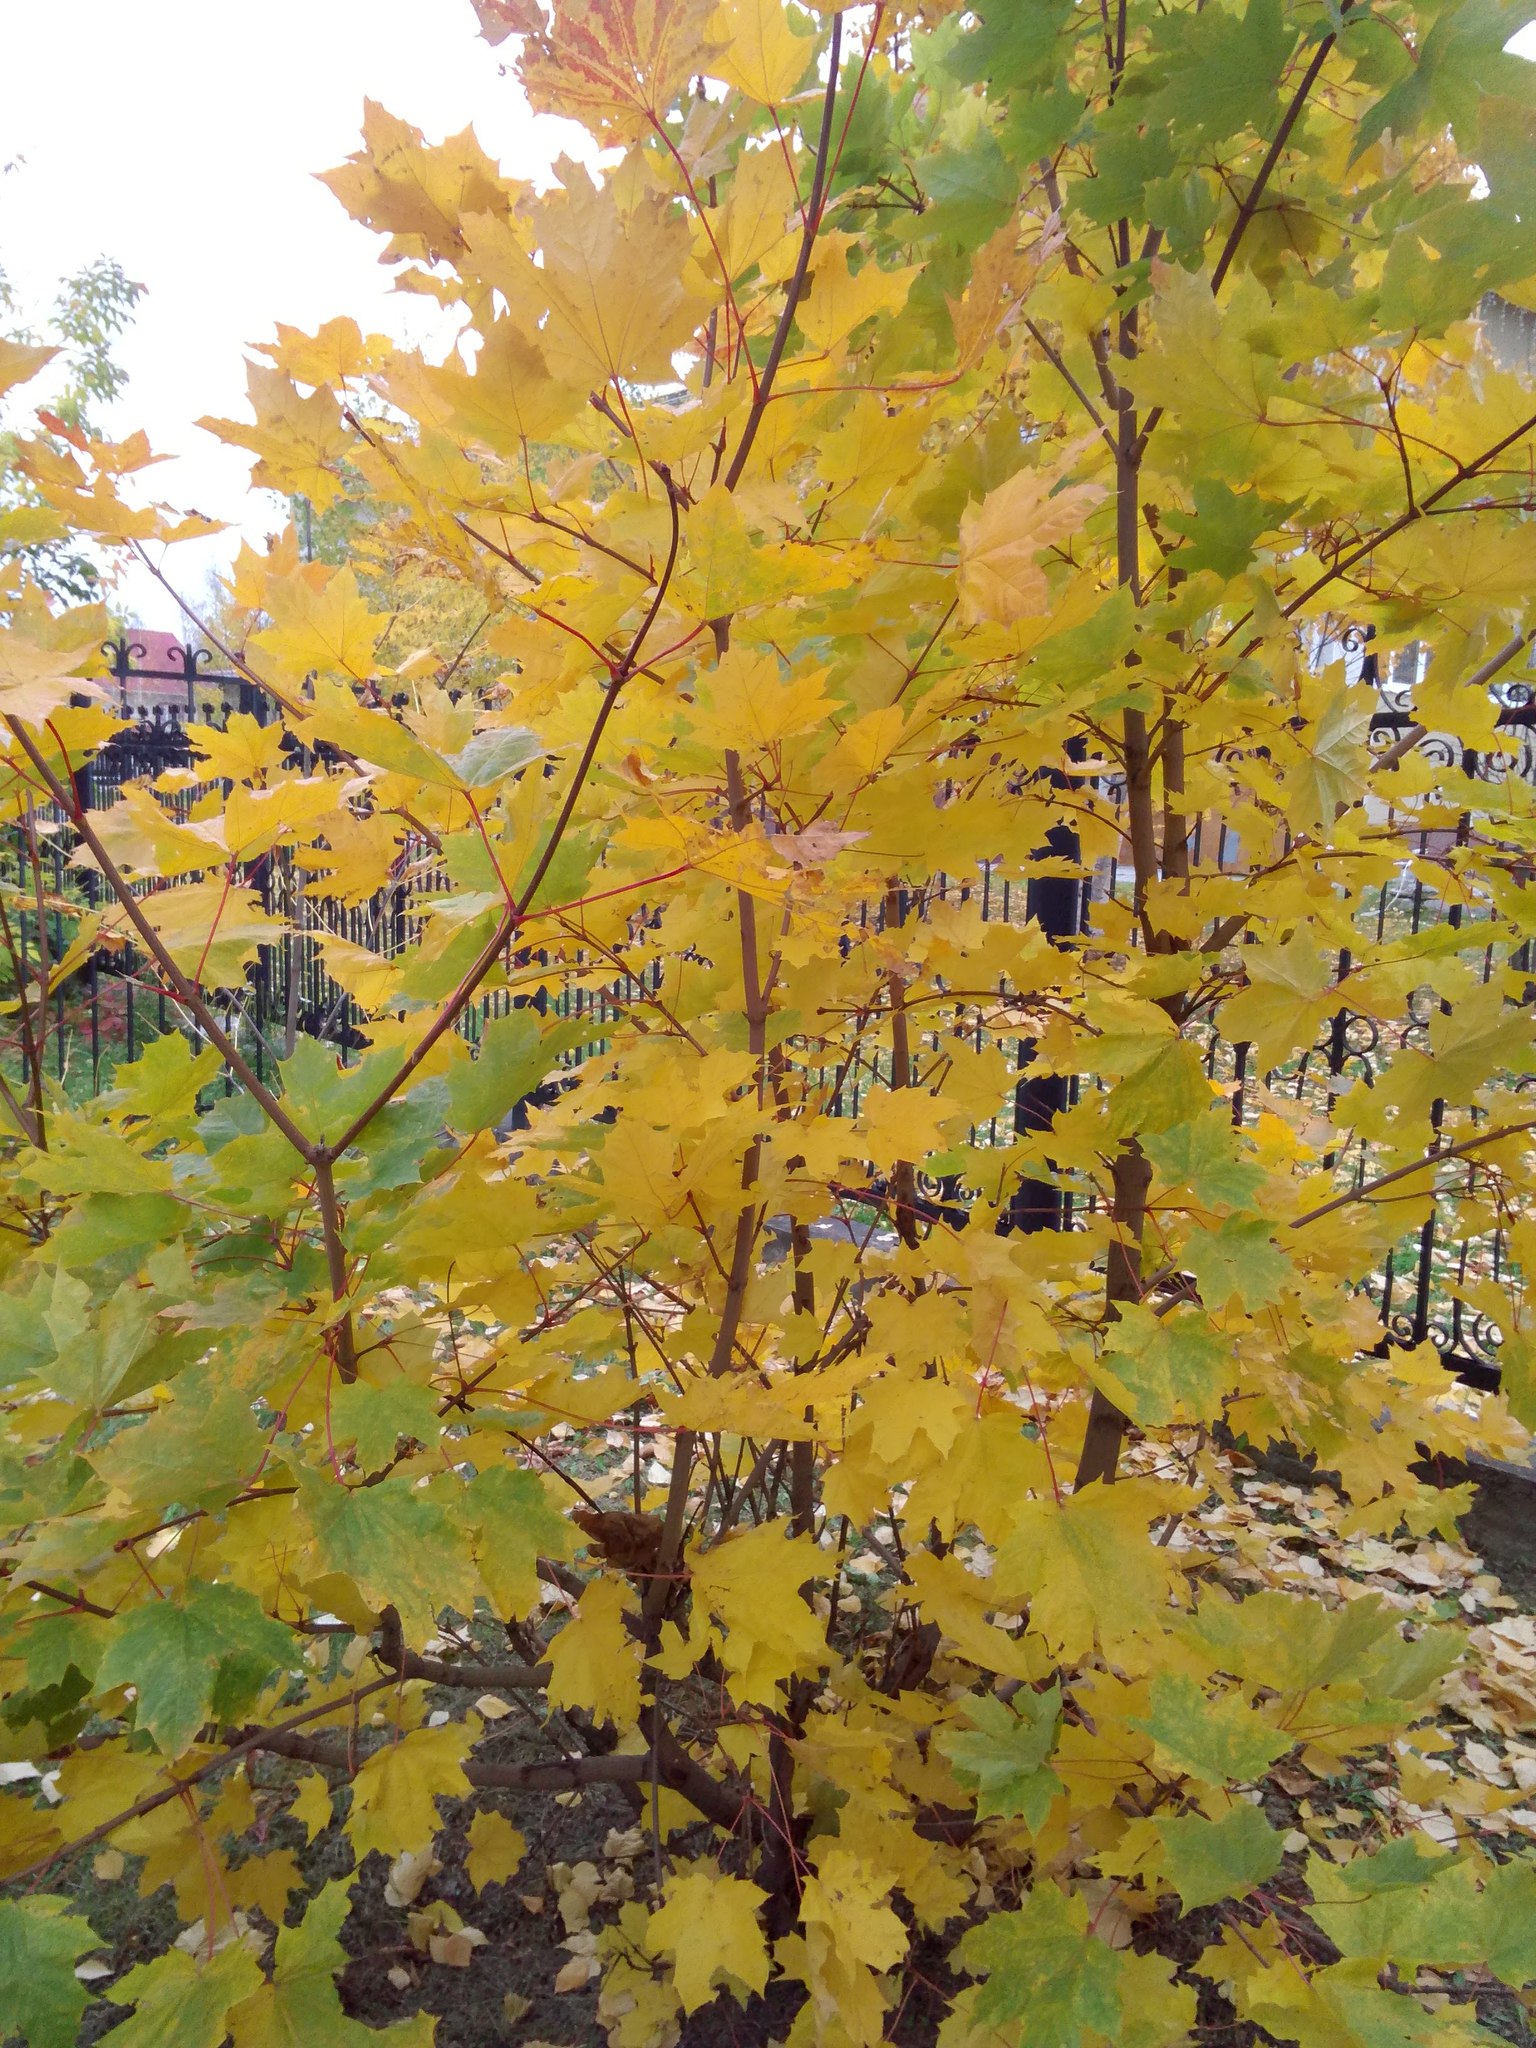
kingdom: Plantae
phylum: Tracheophyta
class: Magnoliopsida
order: Sapindales
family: Sapindaceae
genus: Acer
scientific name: Acer platanoides
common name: Norway maple
